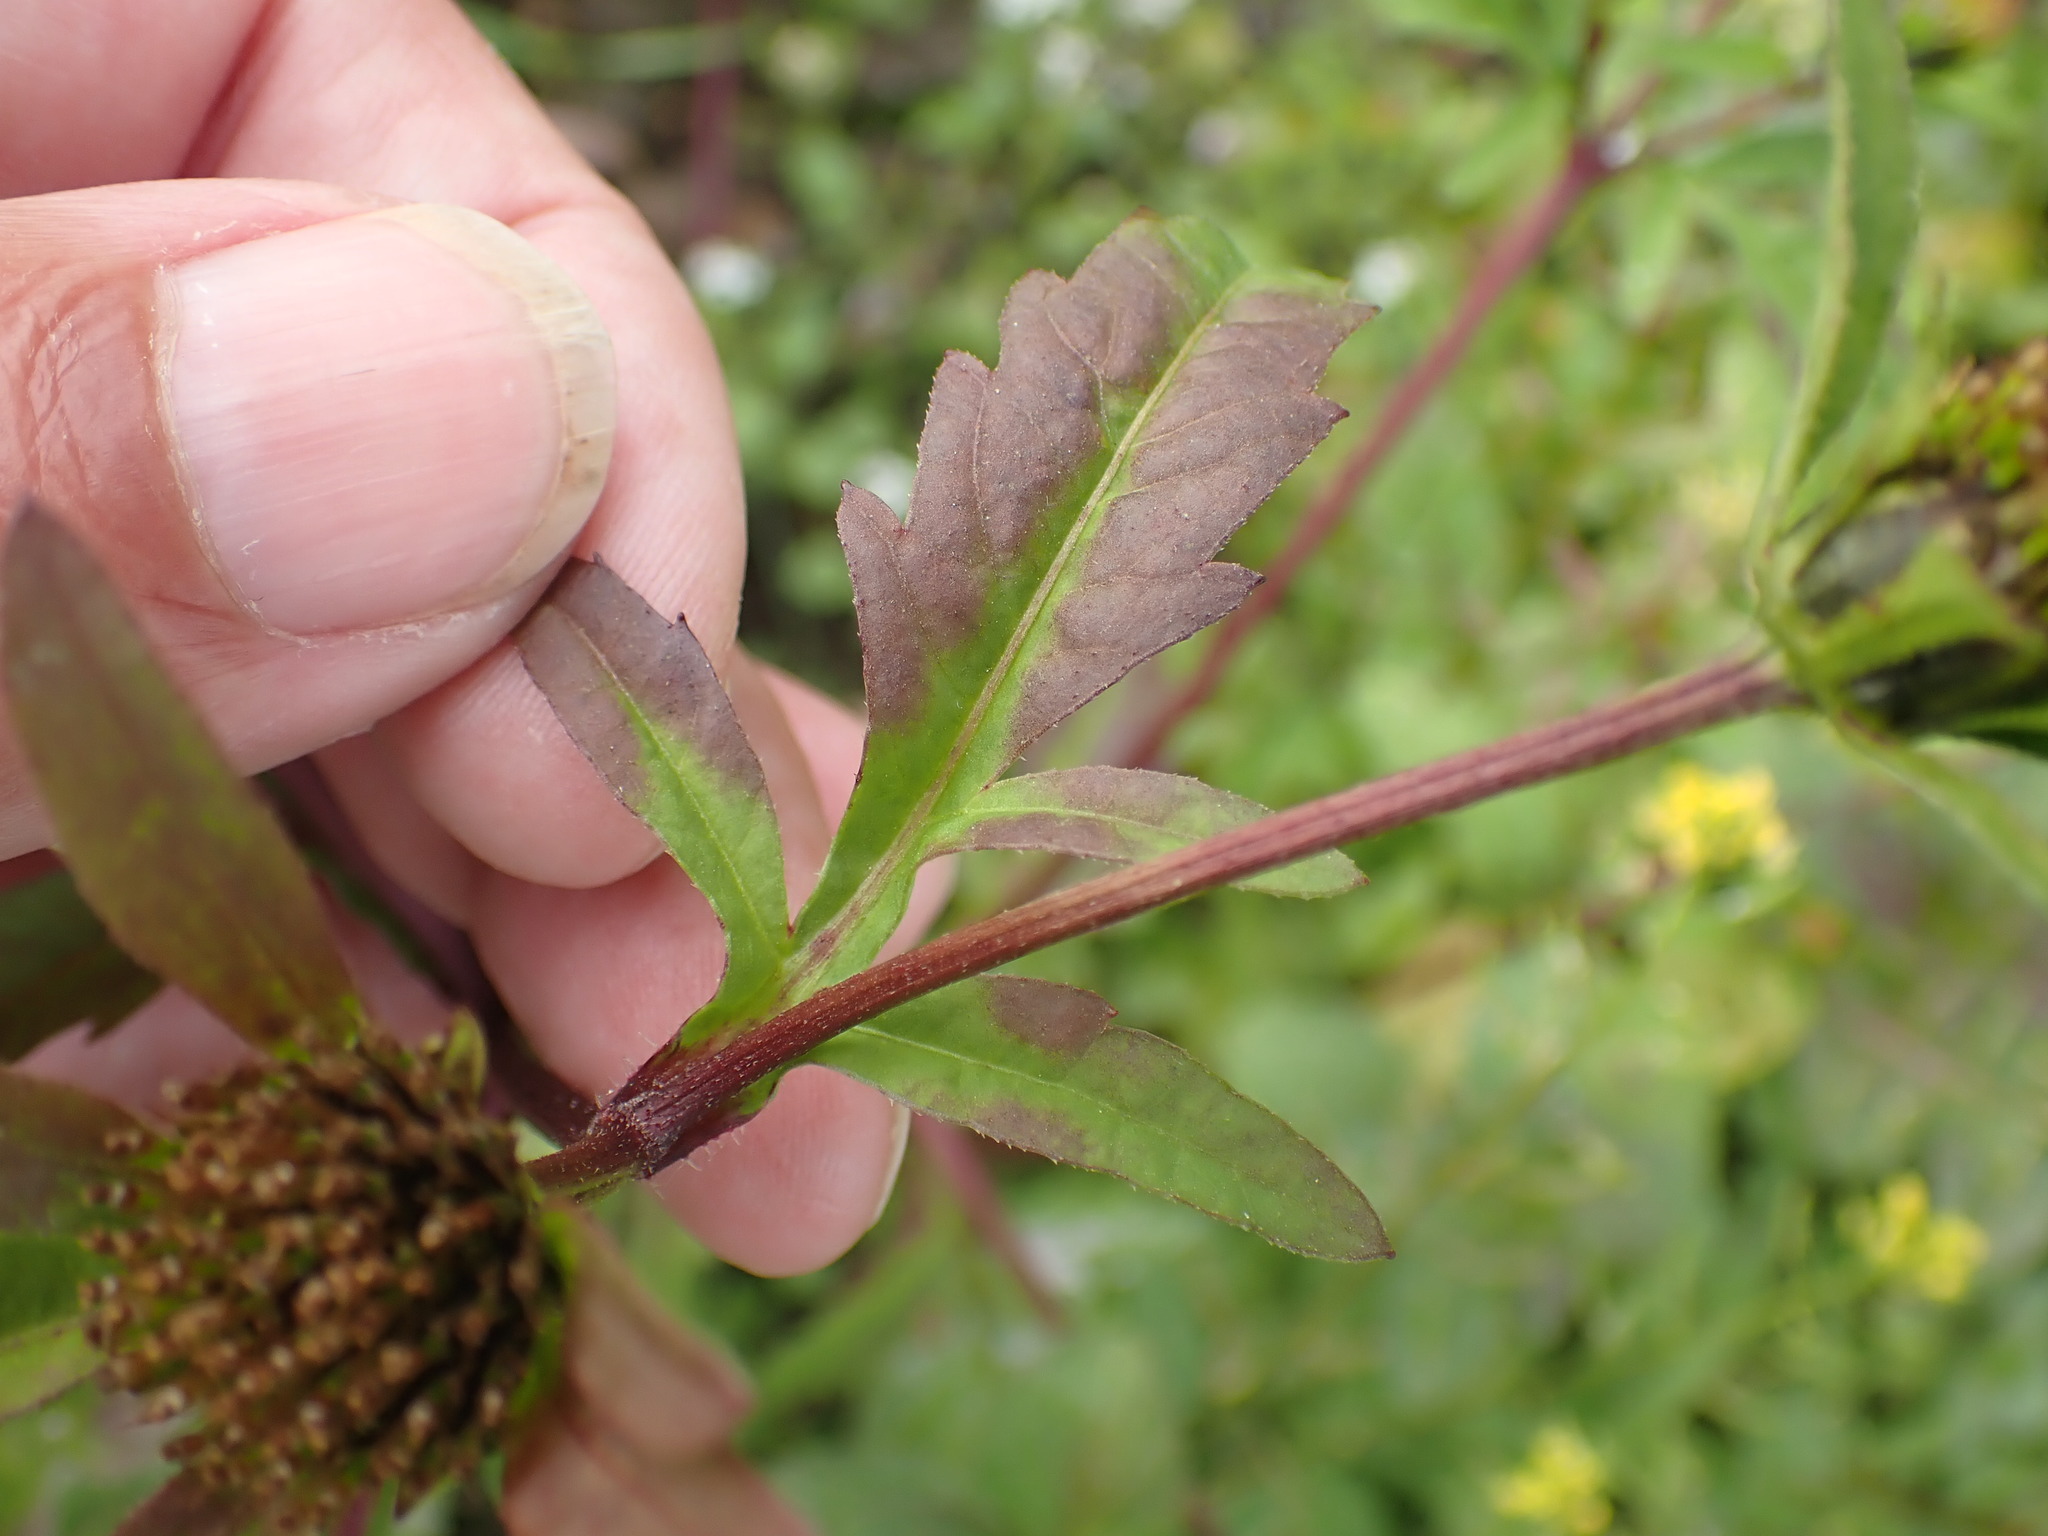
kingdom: Plantae
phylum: Tracheophyta
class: Magnoliopsida
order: Asterales
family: Asteraceae
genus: Bidens
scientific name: Bidens tripartita
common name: Trifid bur-marigold
